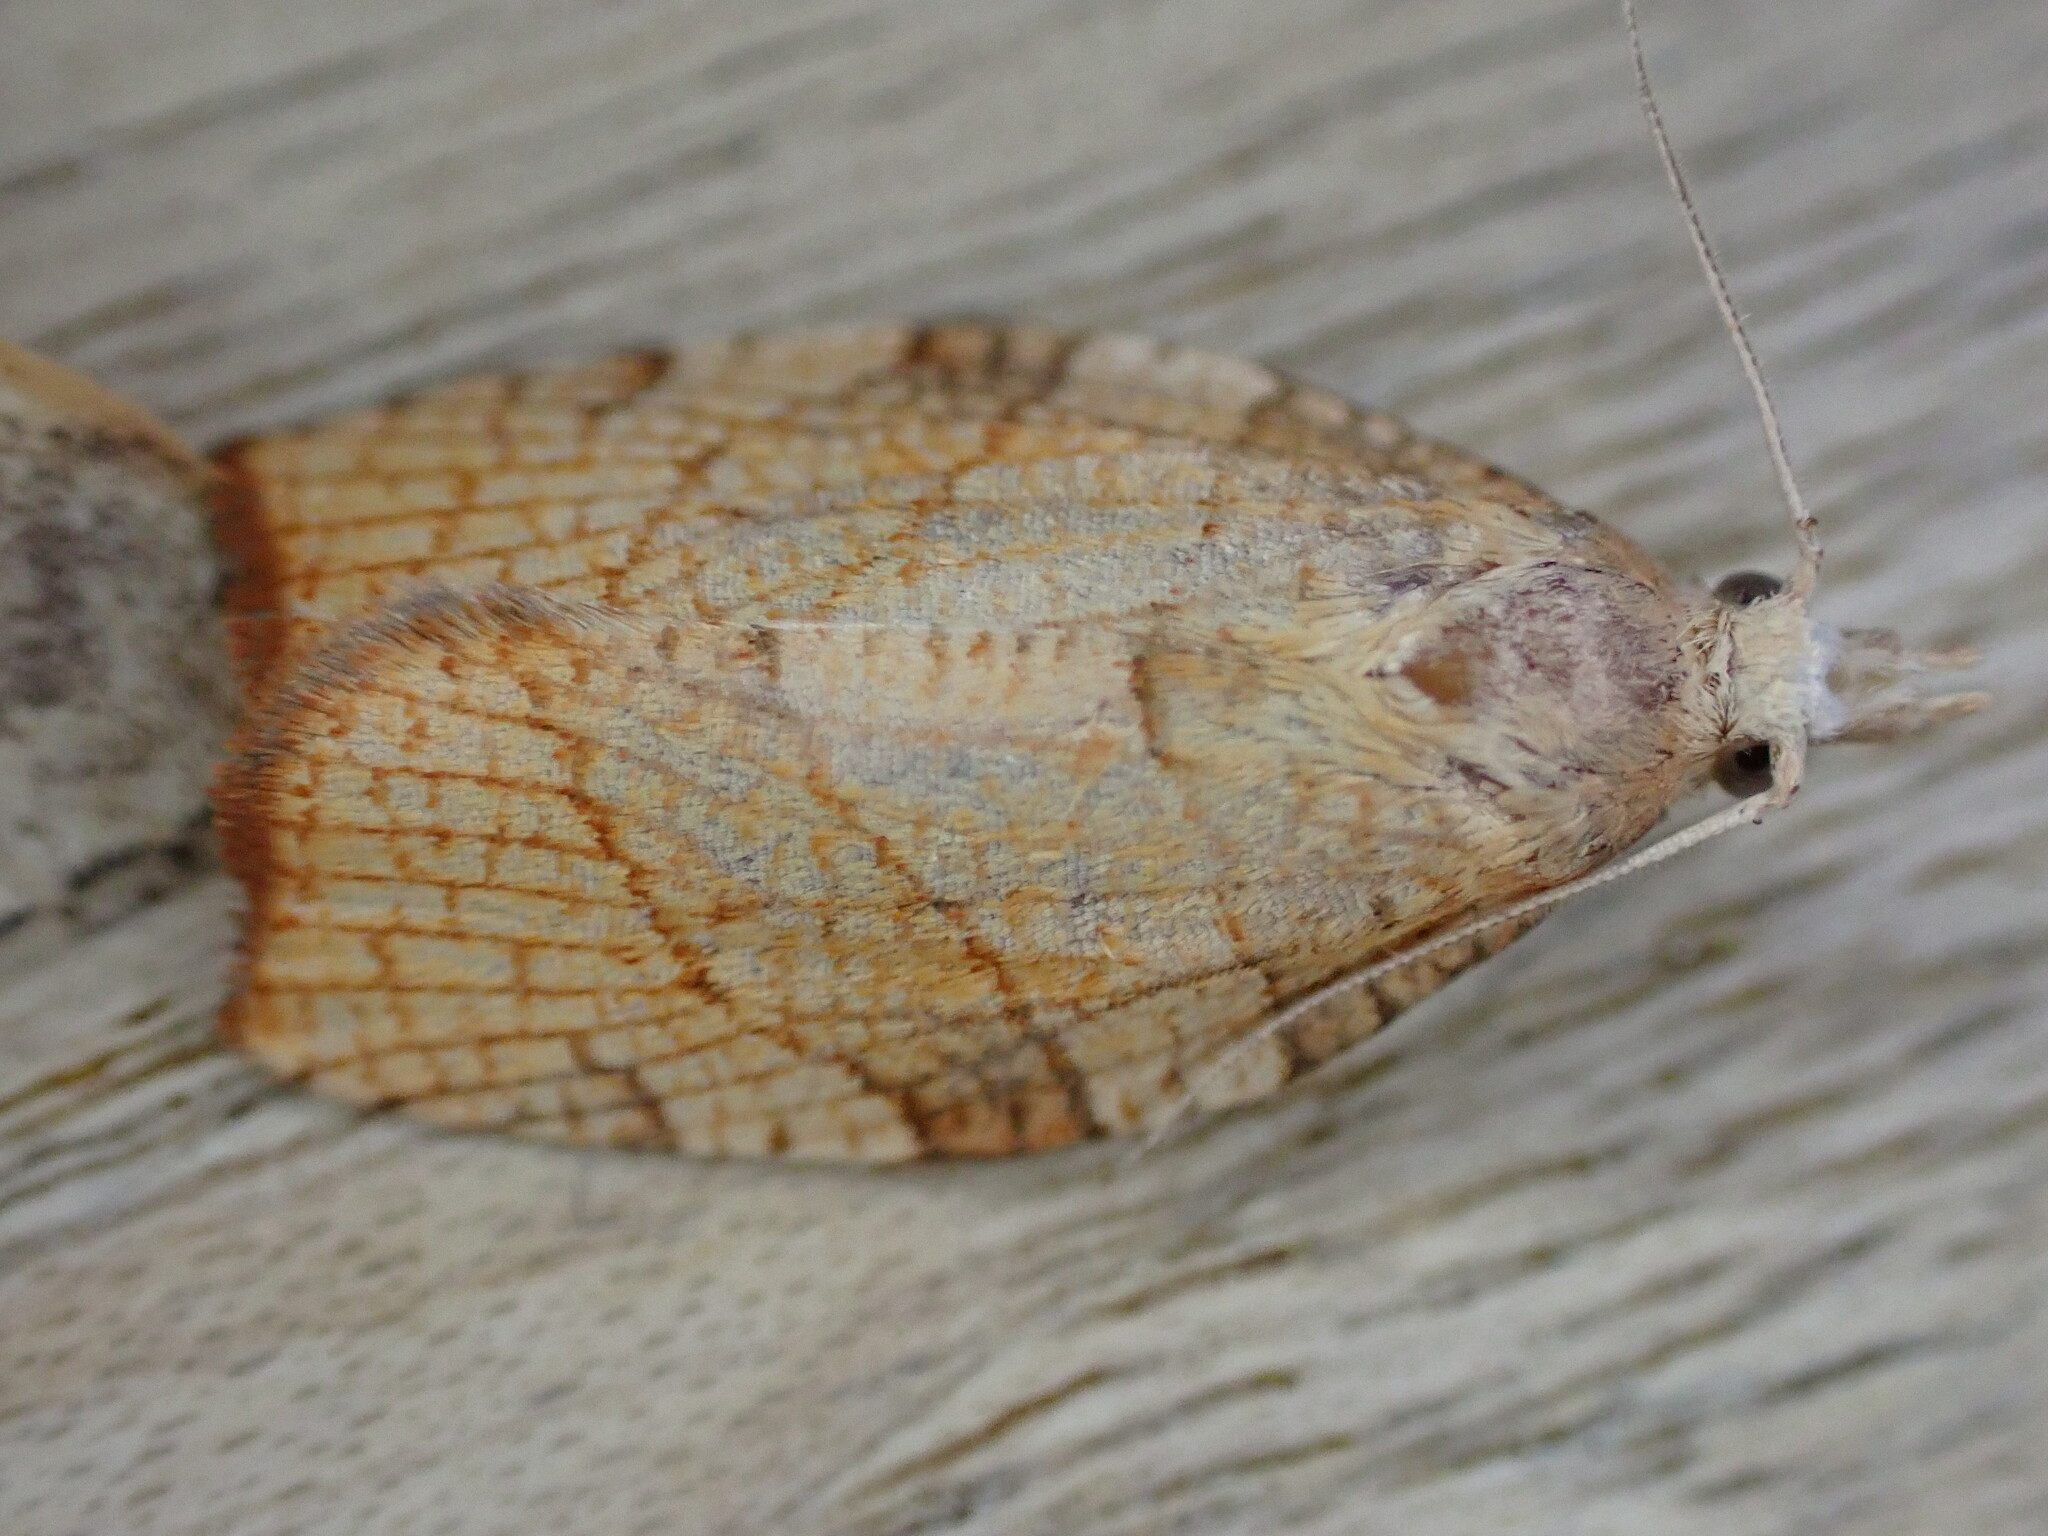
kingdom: Animalia
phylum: Arthropoda
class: Insecta
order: Lepidoptera
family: Tortricidae
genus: Pandemis
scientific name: Pandemis corylana
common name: Chequered fruit-tree tortrix
